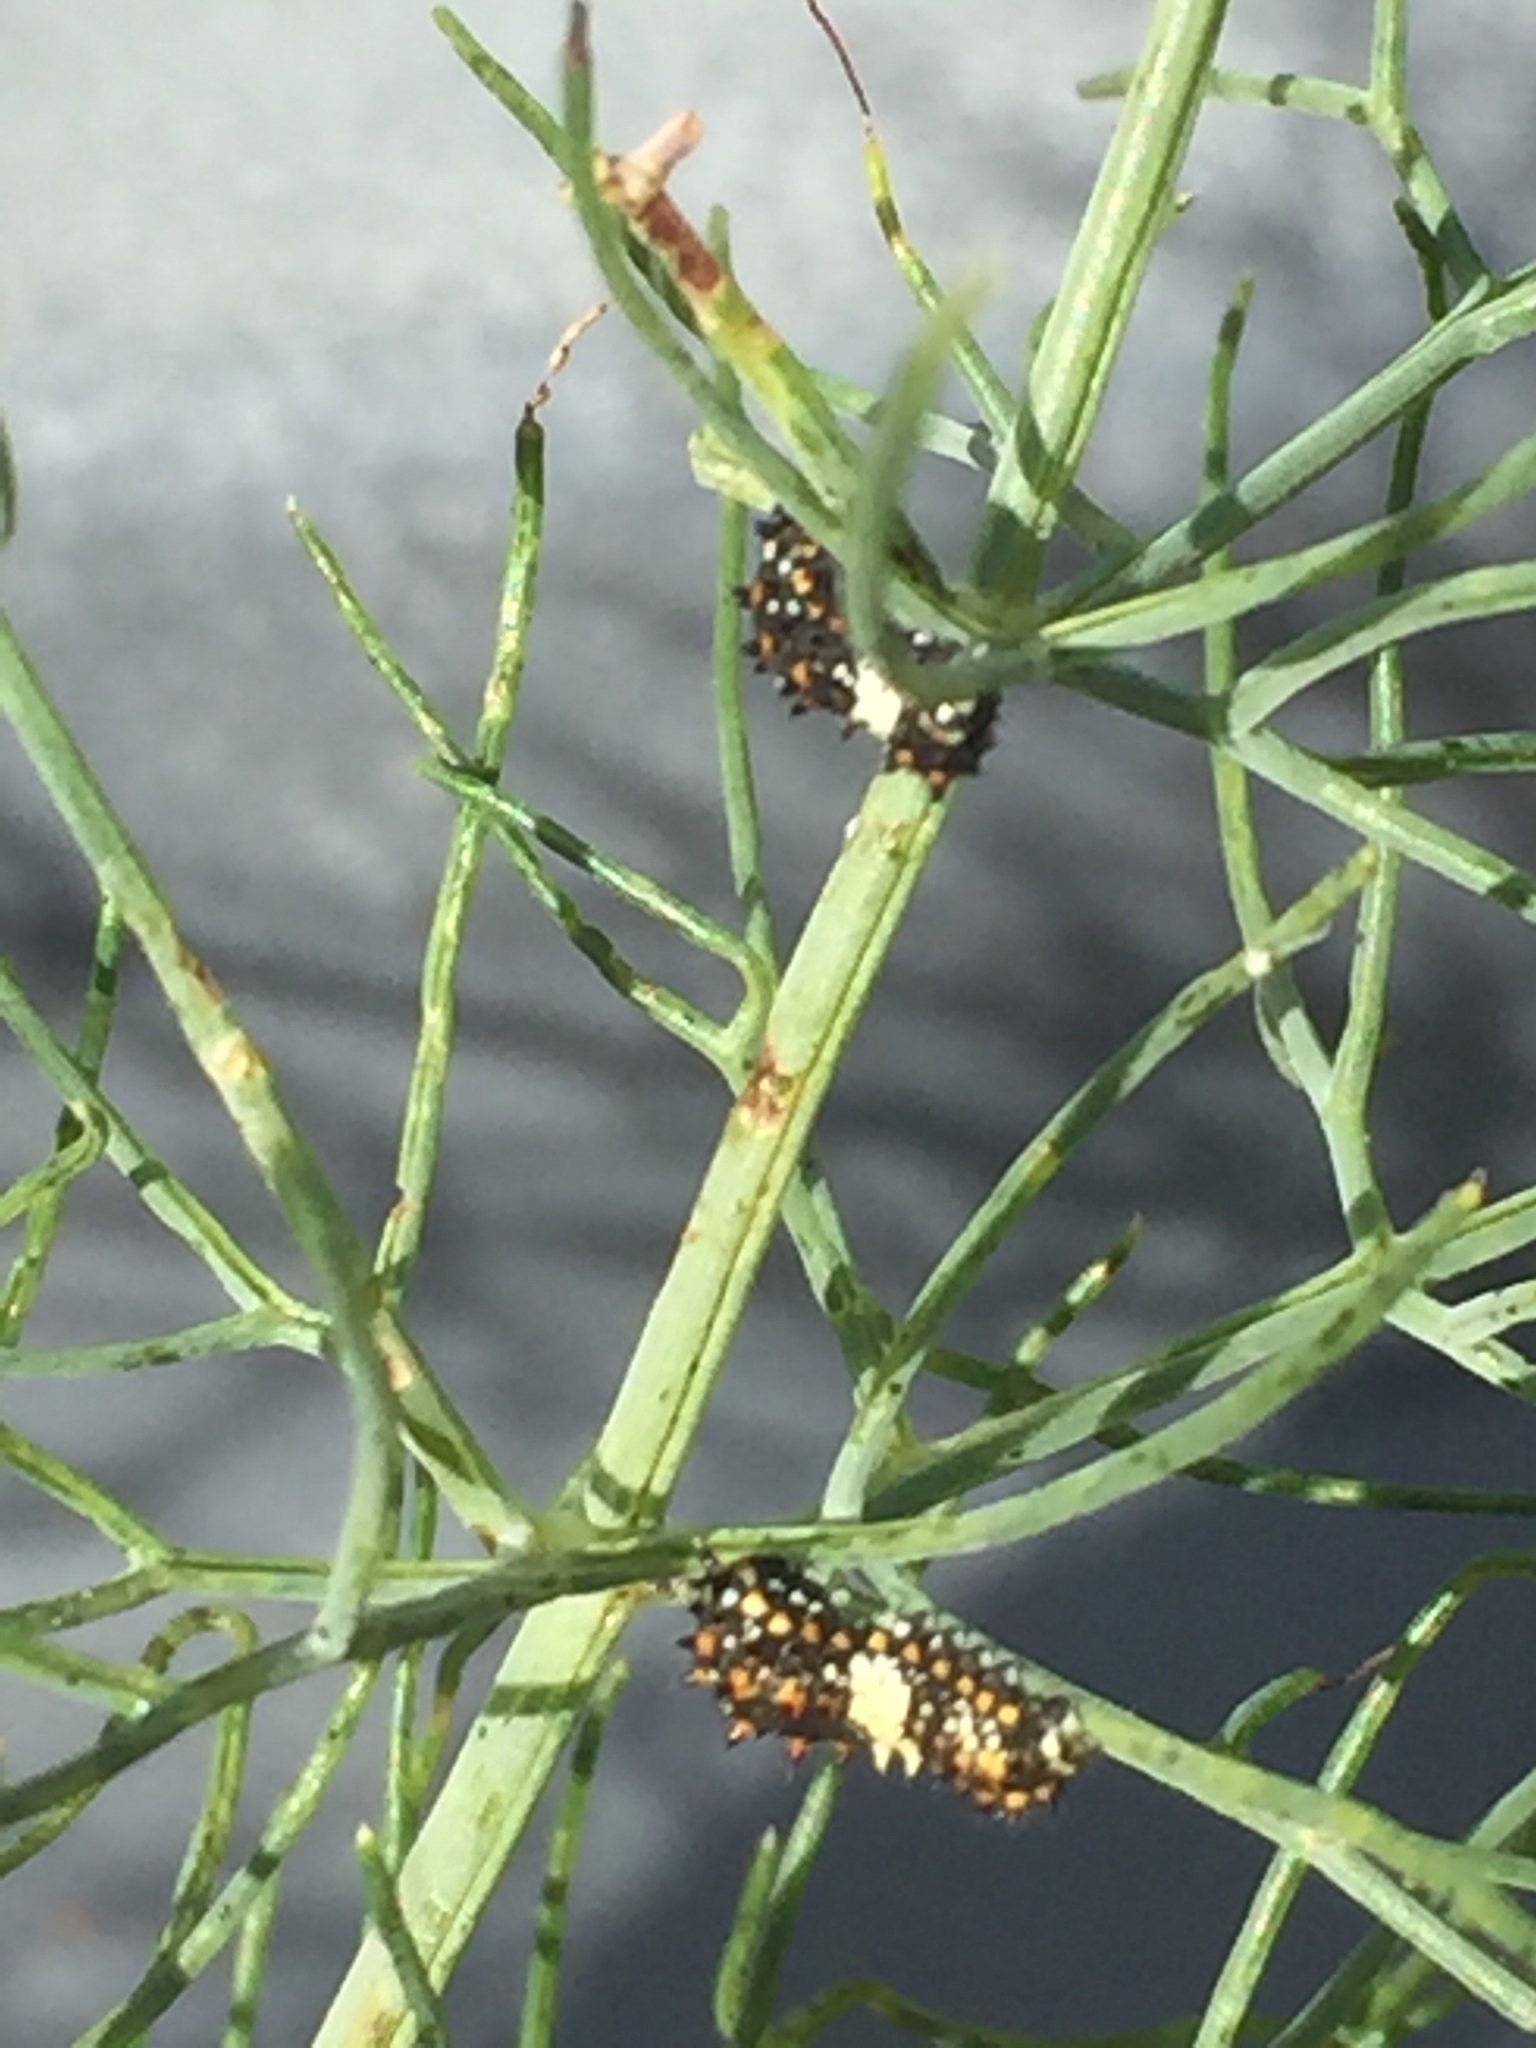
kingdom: Animalia
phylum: Arthropoda
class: Insecta
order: Lepidoptera
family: Papilionidae
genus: Papilio
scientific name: Papilio zelicaon
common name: Anise swallowtail
